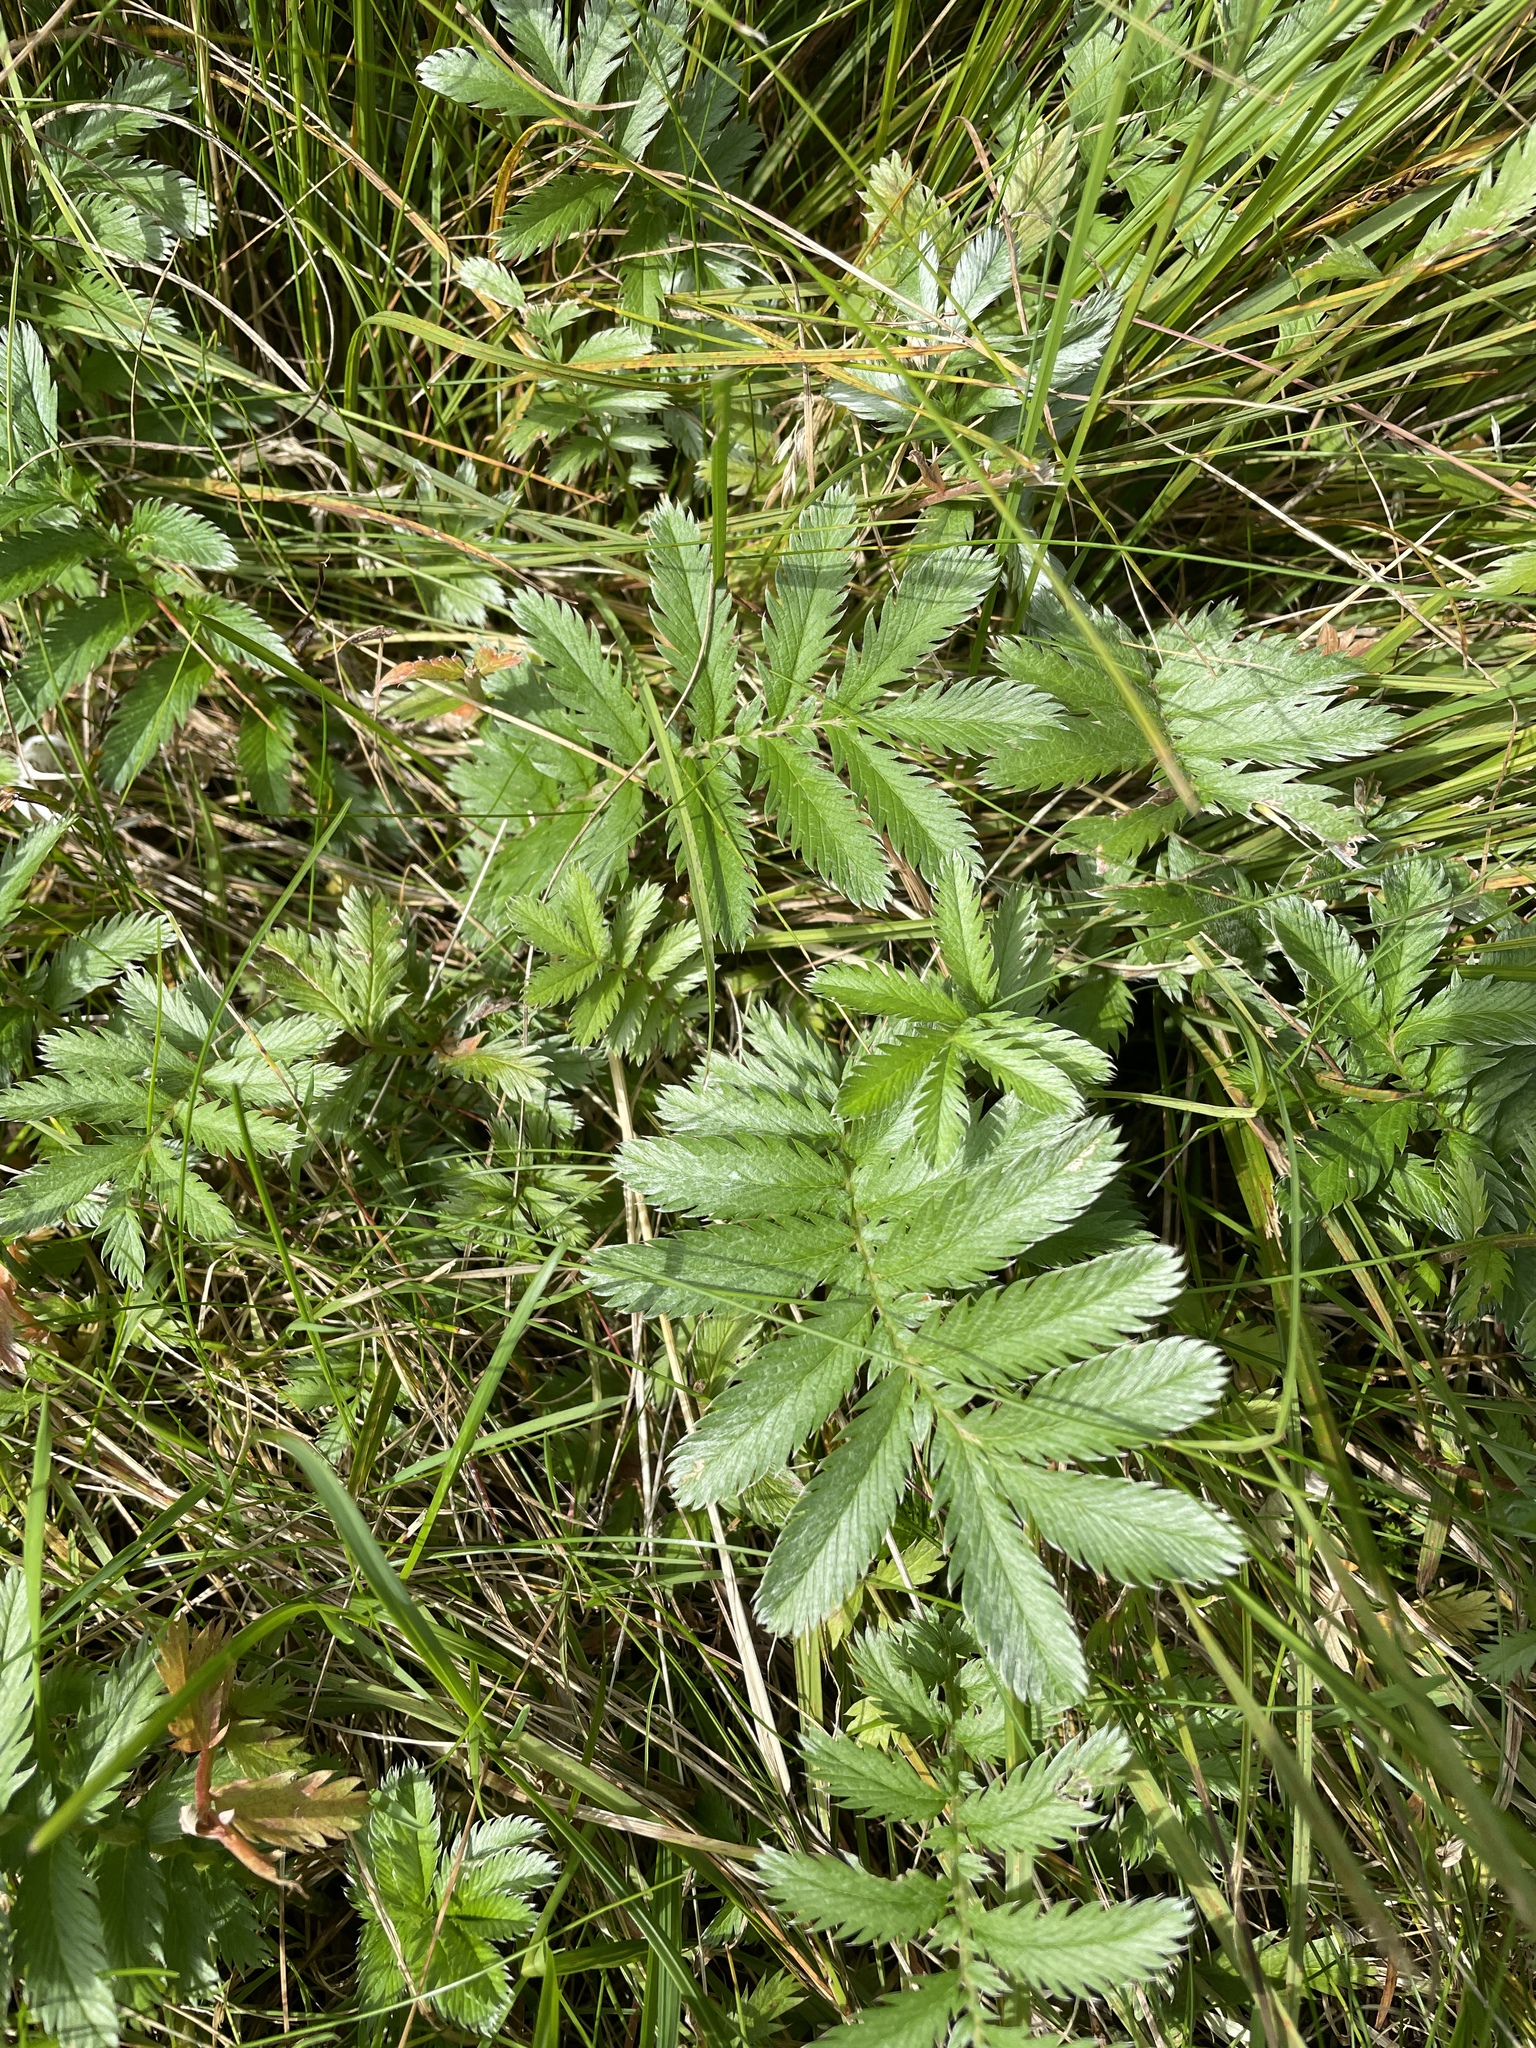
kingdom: Plantae
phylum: Tracheophyta
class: Magnoliopsida
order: Rosales
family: Rosaceae
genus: Argentina
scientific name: Argentina anserina
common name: Common silverweed
